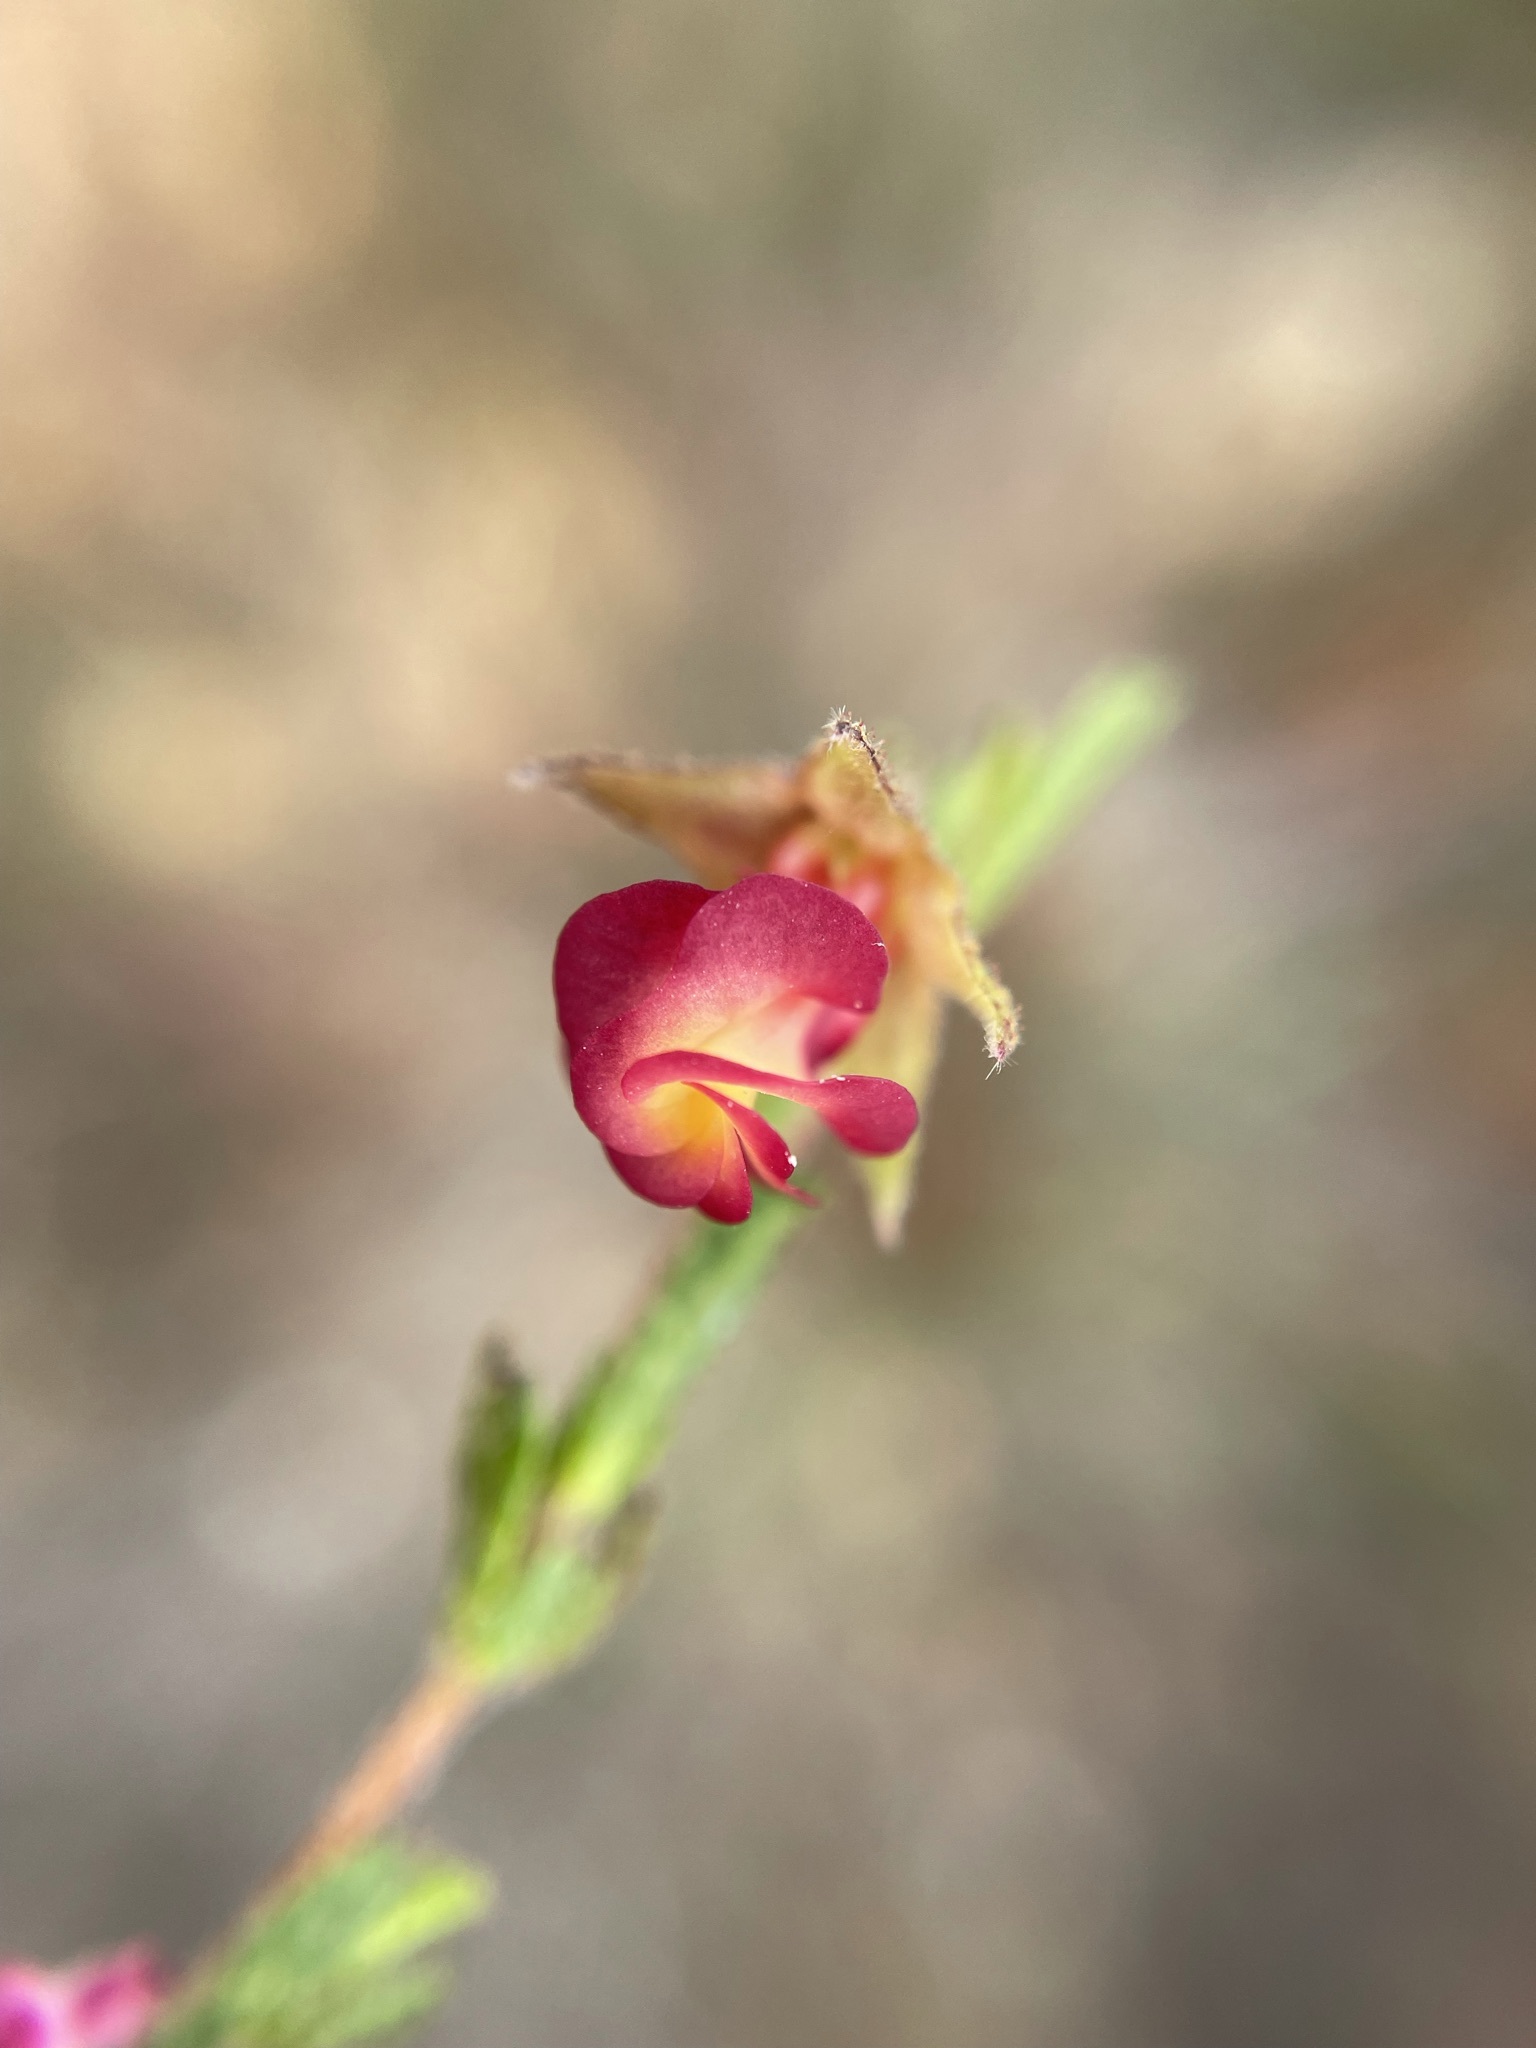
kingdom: Plantae
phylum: Tracheophyta
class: Magnoliopsida
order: Malvales
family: Malvaceae
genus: Hermannia
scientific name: Hermannia flammula
